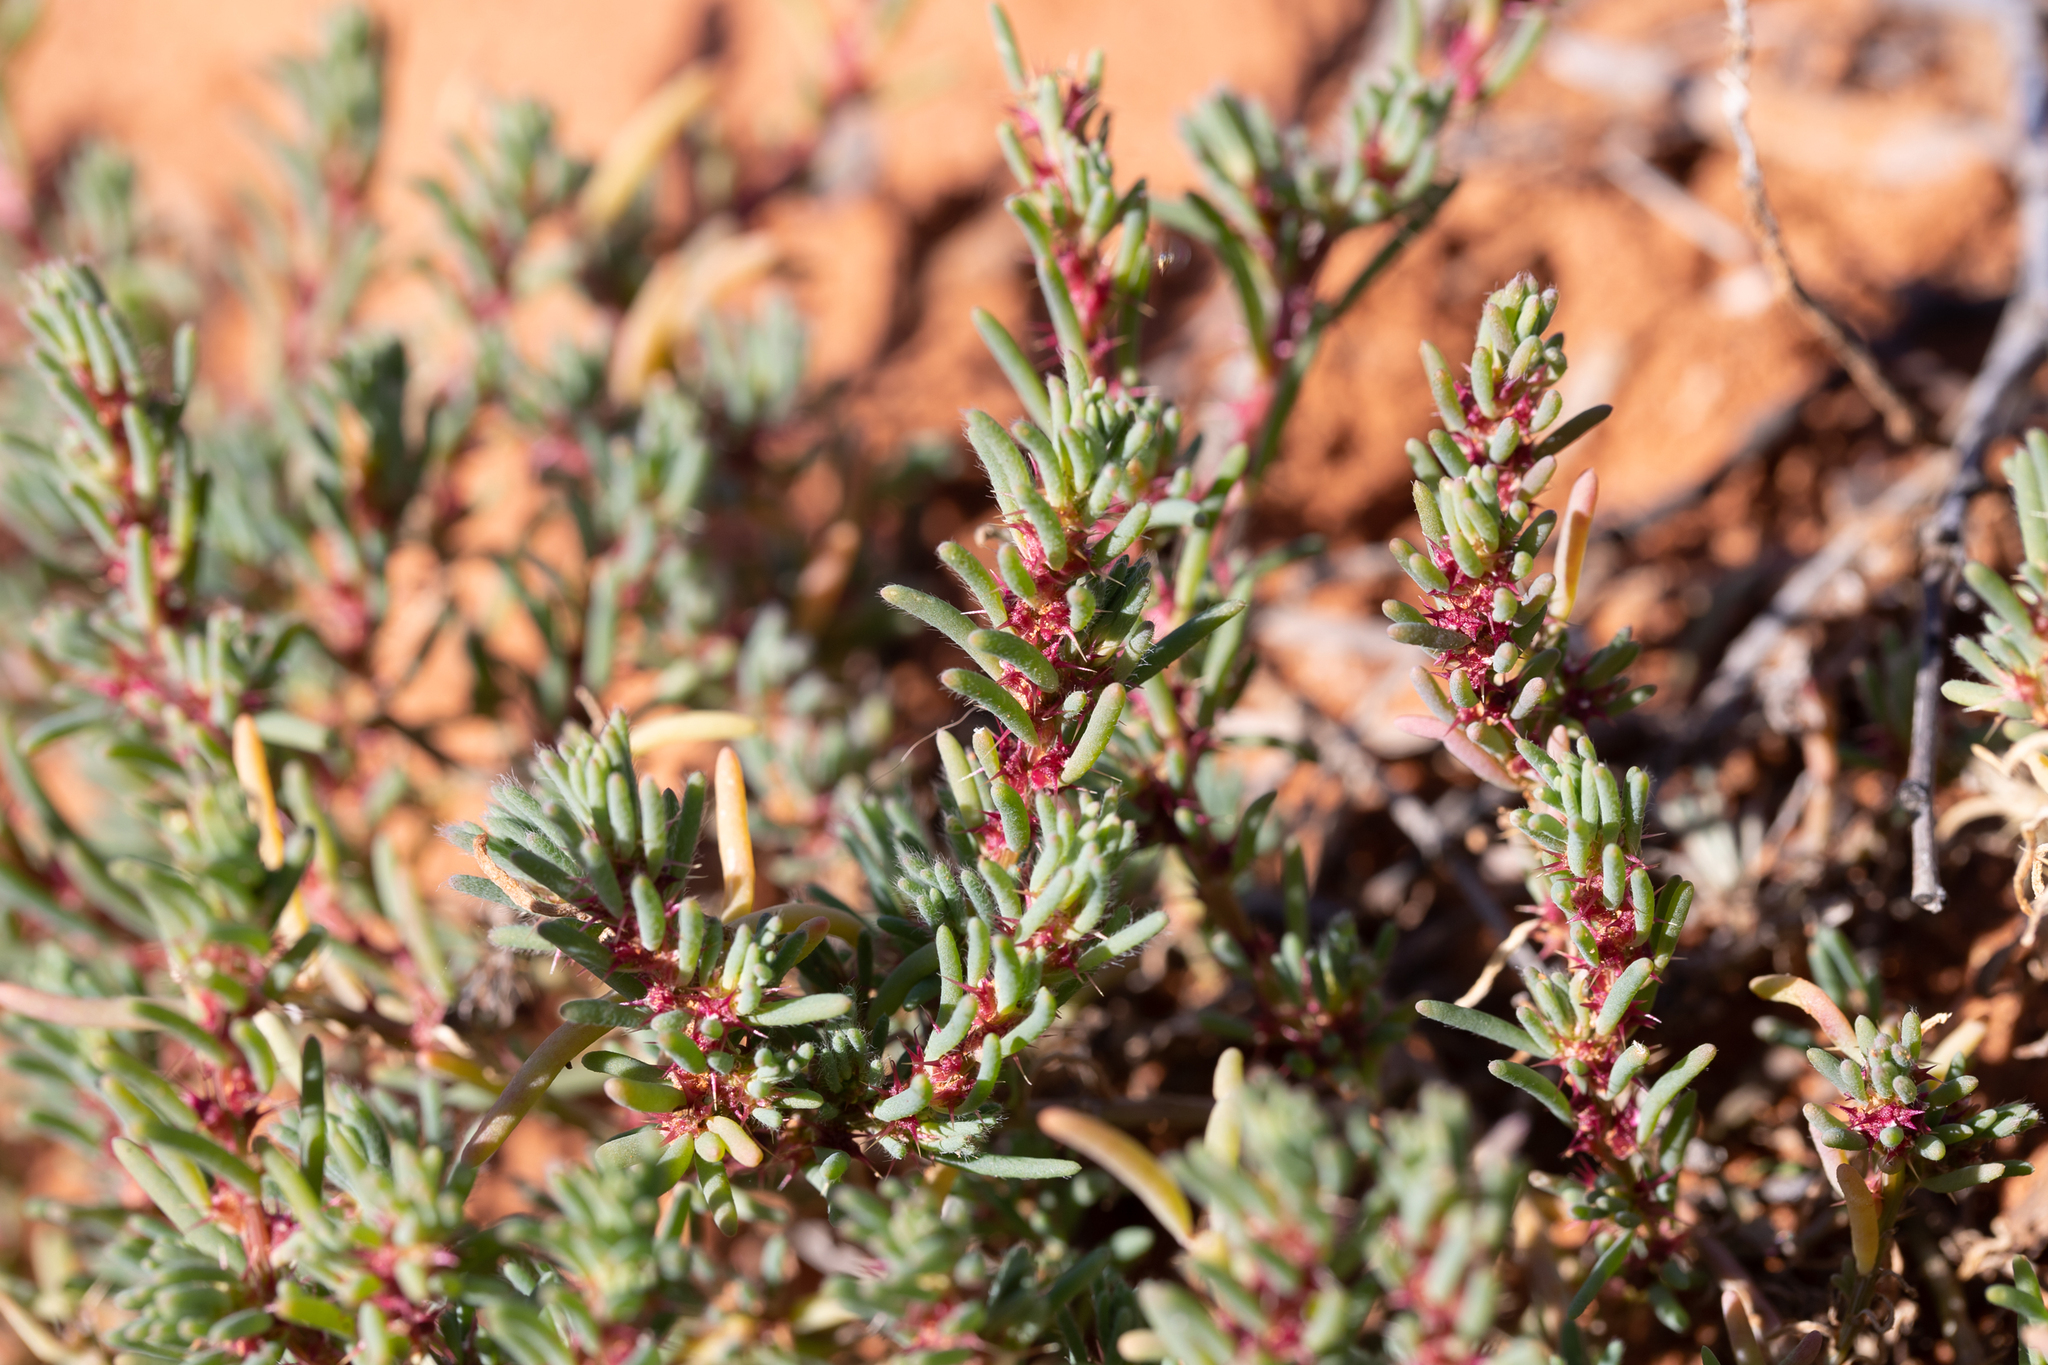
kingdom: Plantae
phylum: Tracheophyta
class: Magnoliopsida
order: Caryophyllales
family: Amaranthaceae
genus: Sclerolaena
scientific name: Sclerolaena calcarata
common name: Red copperbur
